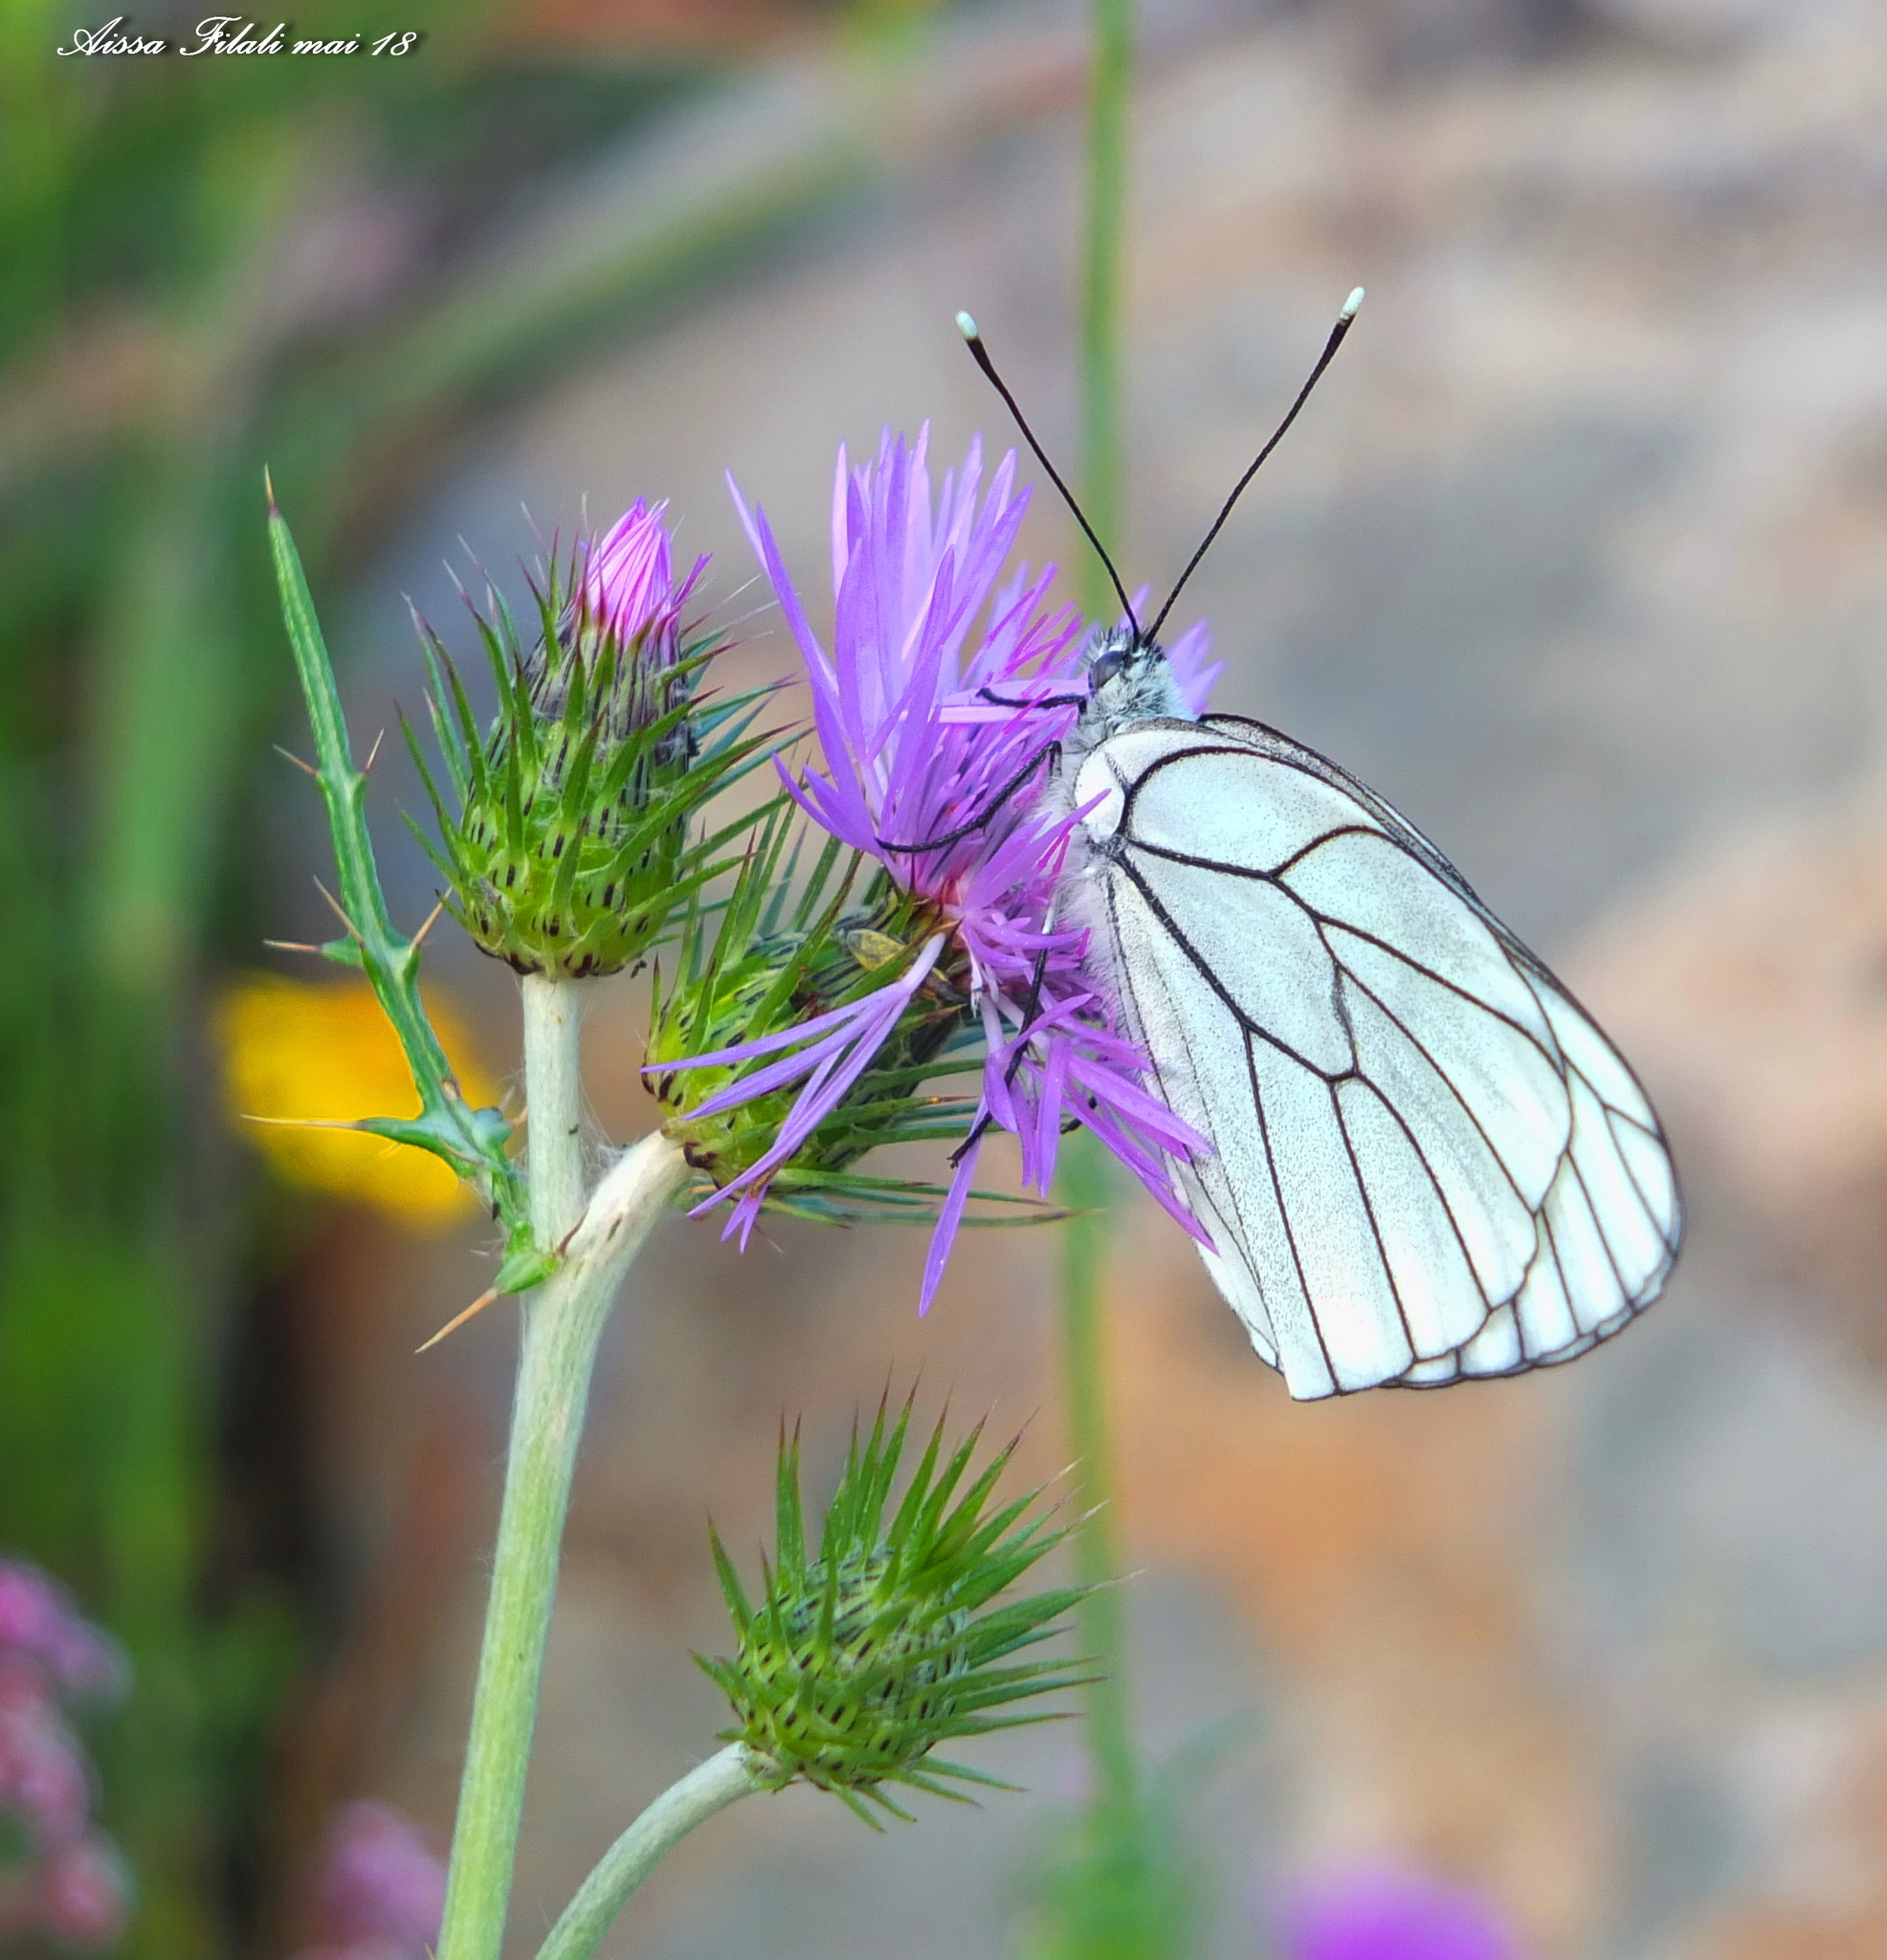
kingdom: Animalia
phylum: Arthropoda
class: Insecta
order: Lepidoptera
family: Pieridae
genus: Aporia
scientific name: Aporia crataegi
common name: Black-veined white
